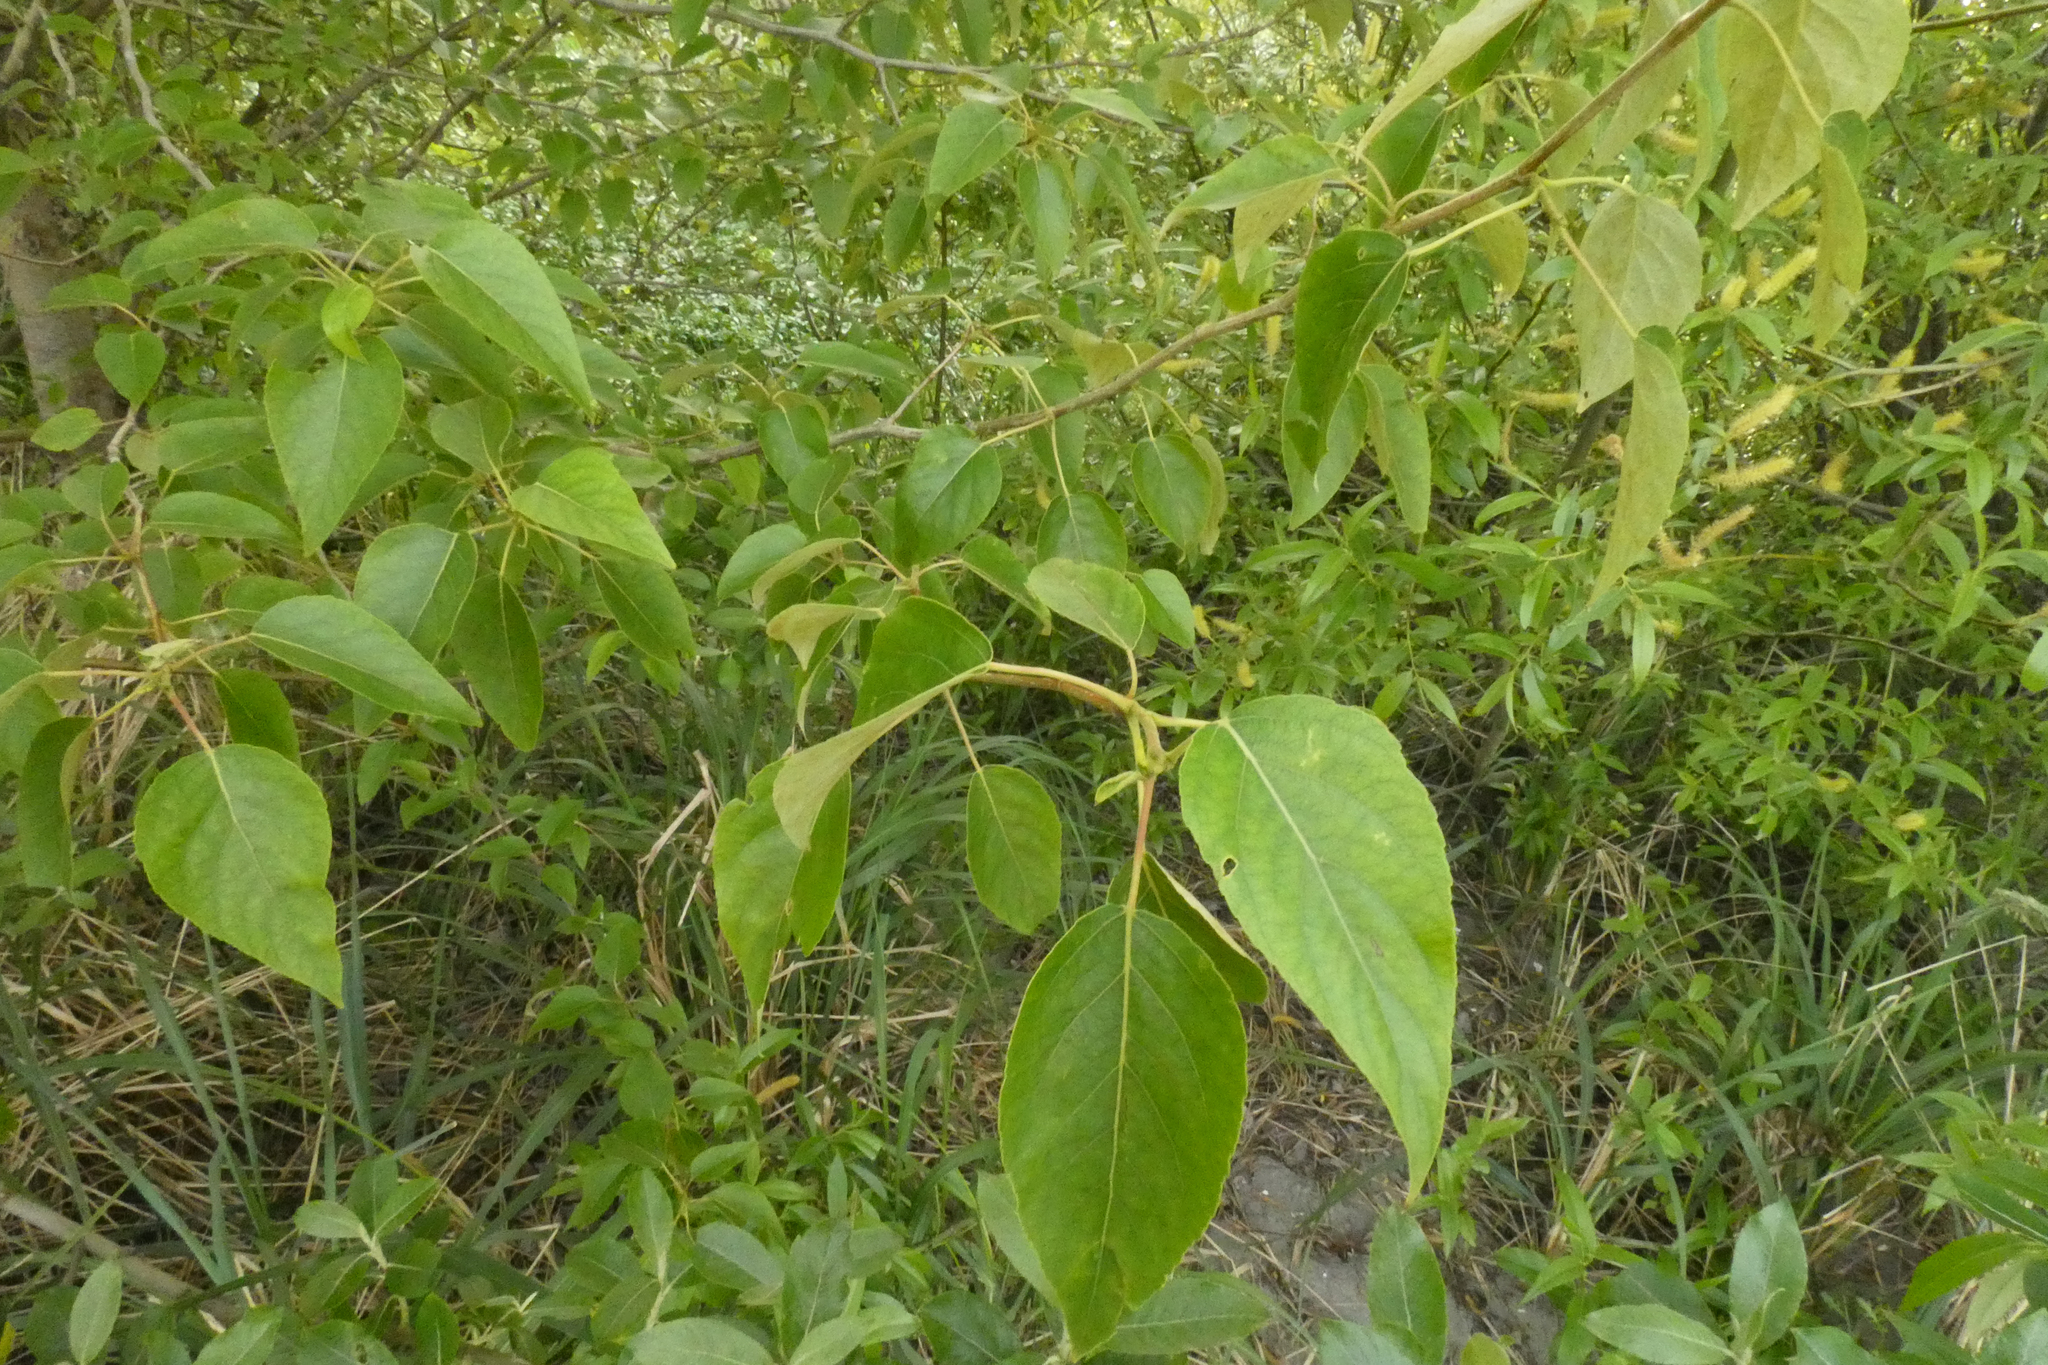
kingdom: Plantae
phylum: Tracheophyta
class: Magnoliopsida
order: Malpighiales
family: Salicaceae
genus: Populus
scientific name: Populus trichocarpa
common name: Black cottonwood
